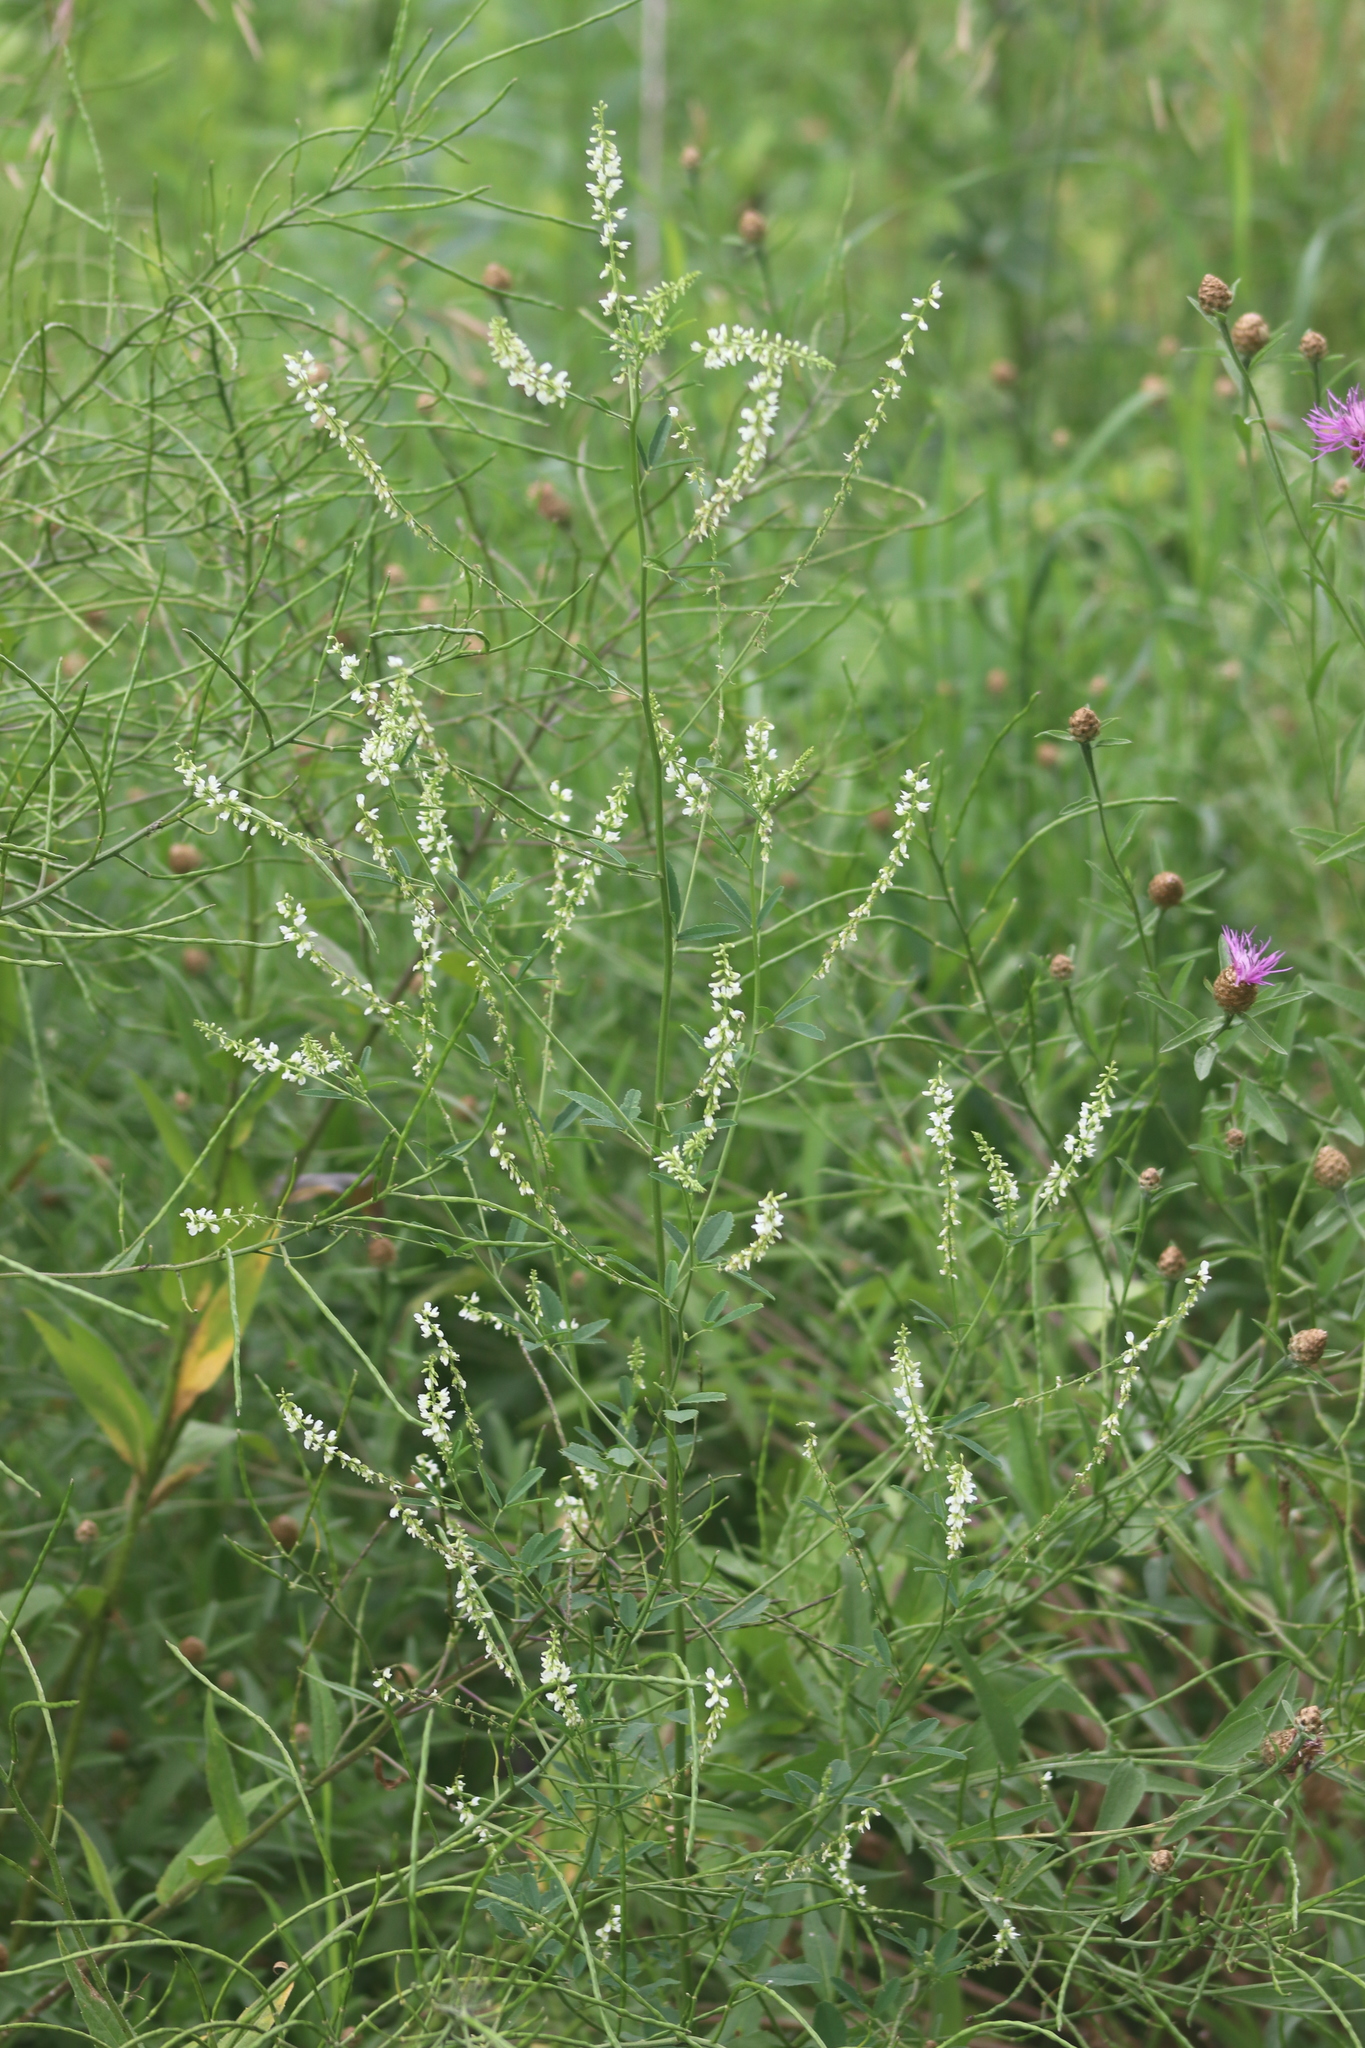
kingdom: Plantae
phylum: Tracheophyta
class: Magnoliopsida
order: Fabales
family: Fabaceae
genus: Melilotus
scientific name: Melilotus albus
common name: White melilot
